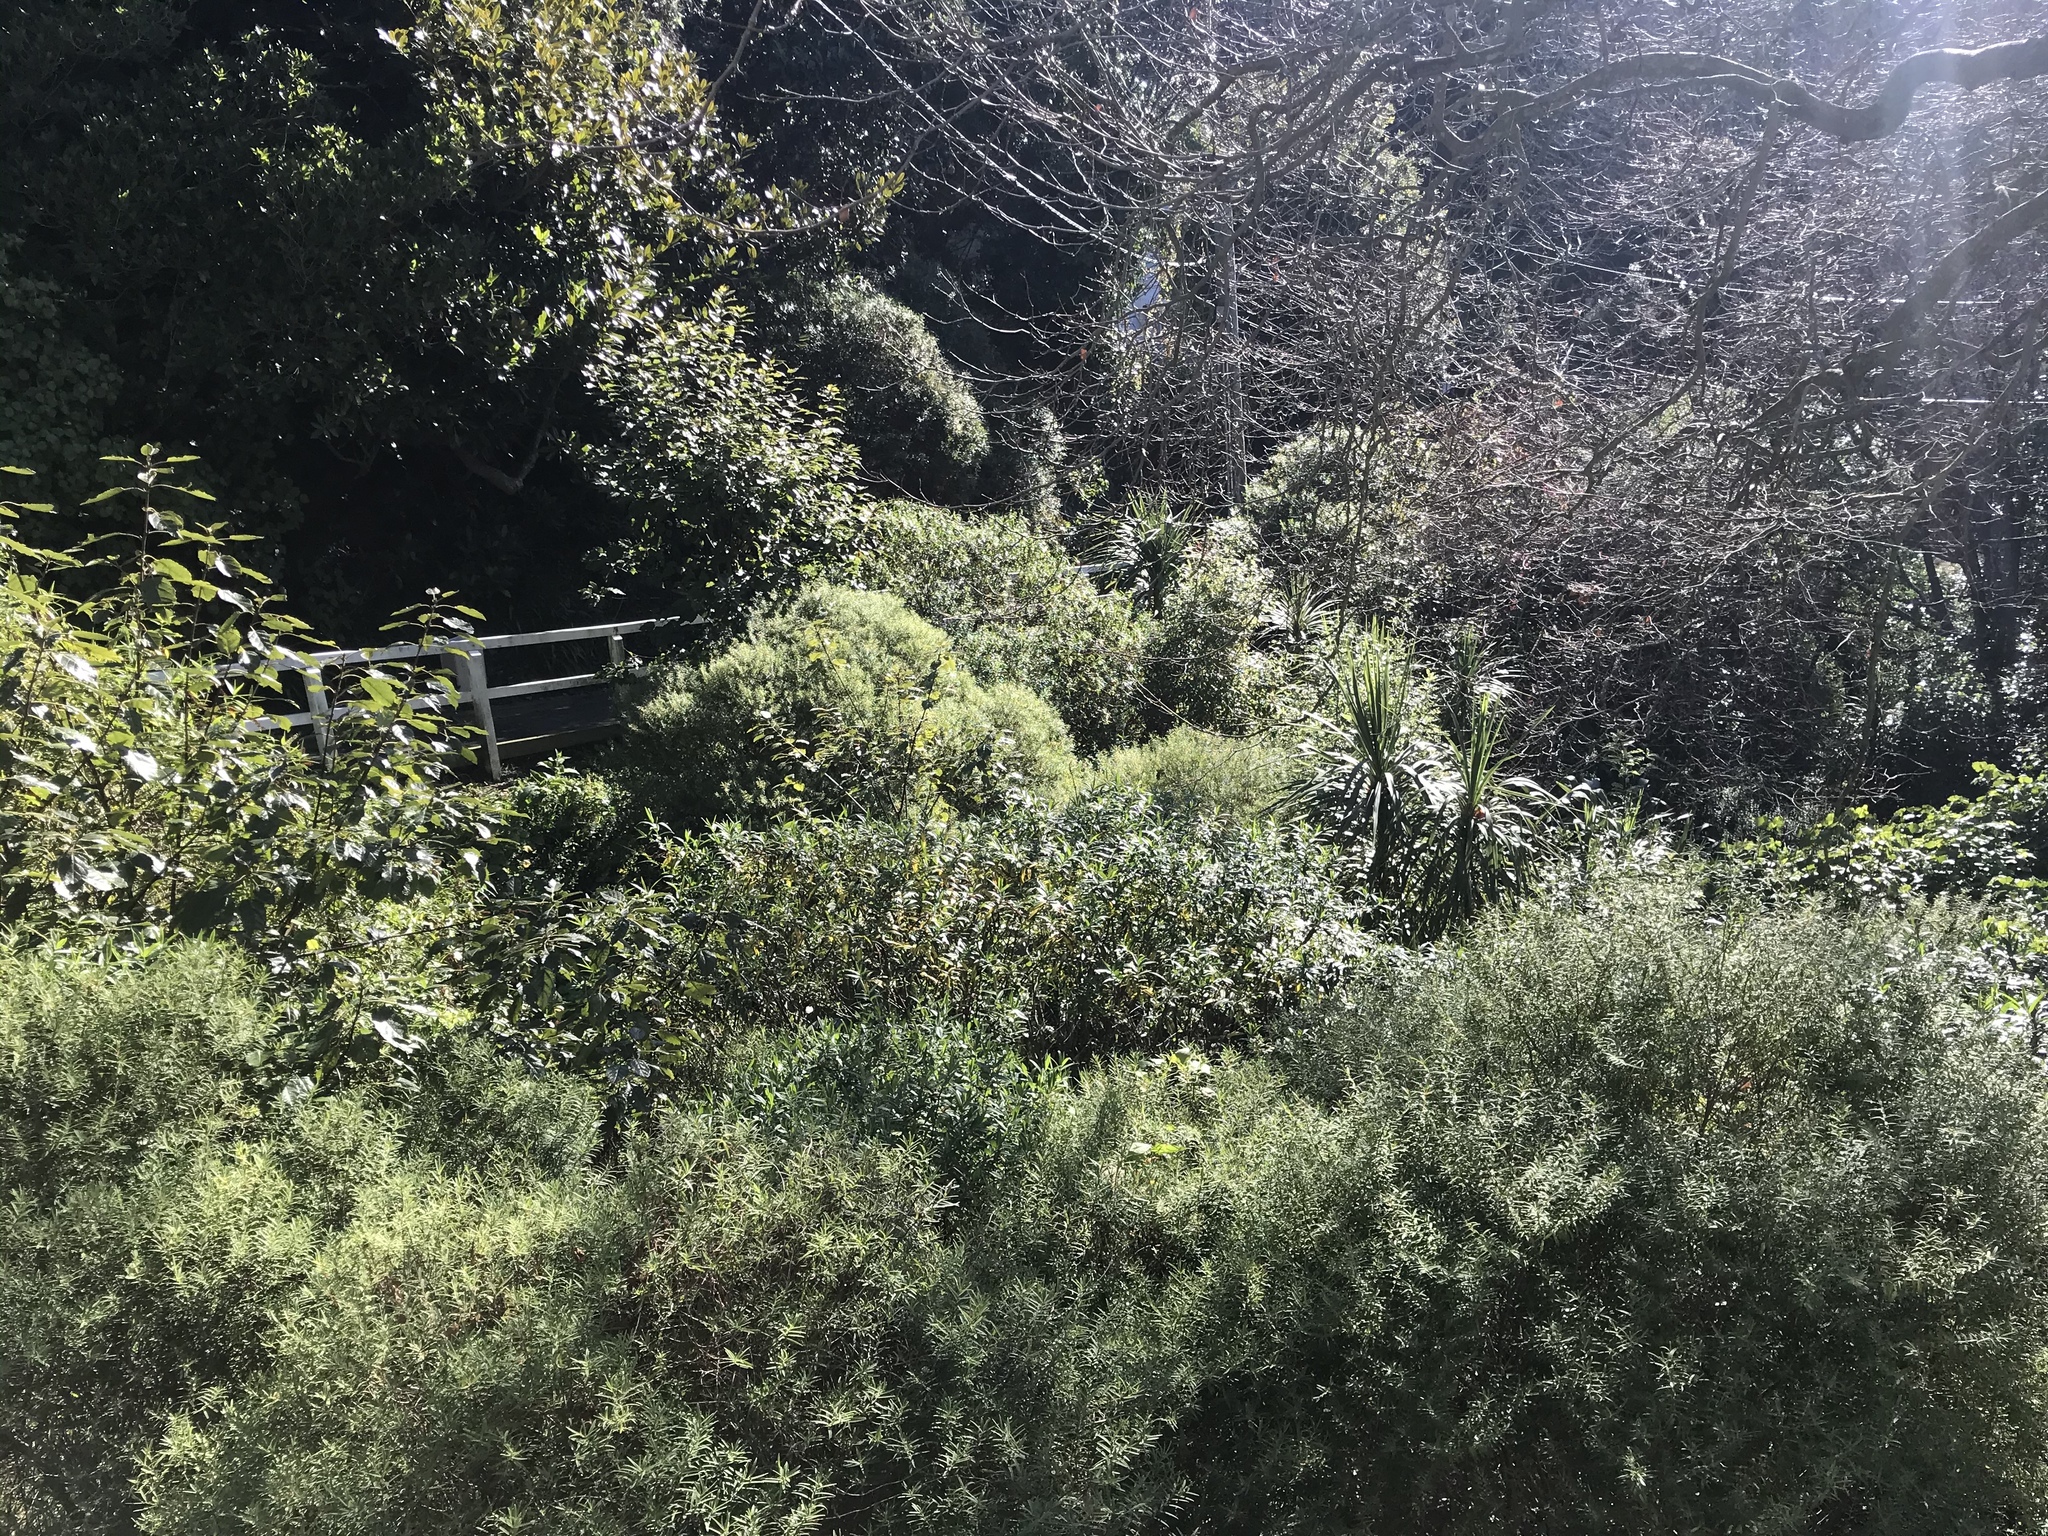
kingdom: Plantae
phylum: Tracheophyta
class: Magnoliopsida
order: Lamiales
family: Plantaginaceae
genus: Veronica
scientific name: Veronica parviflora
